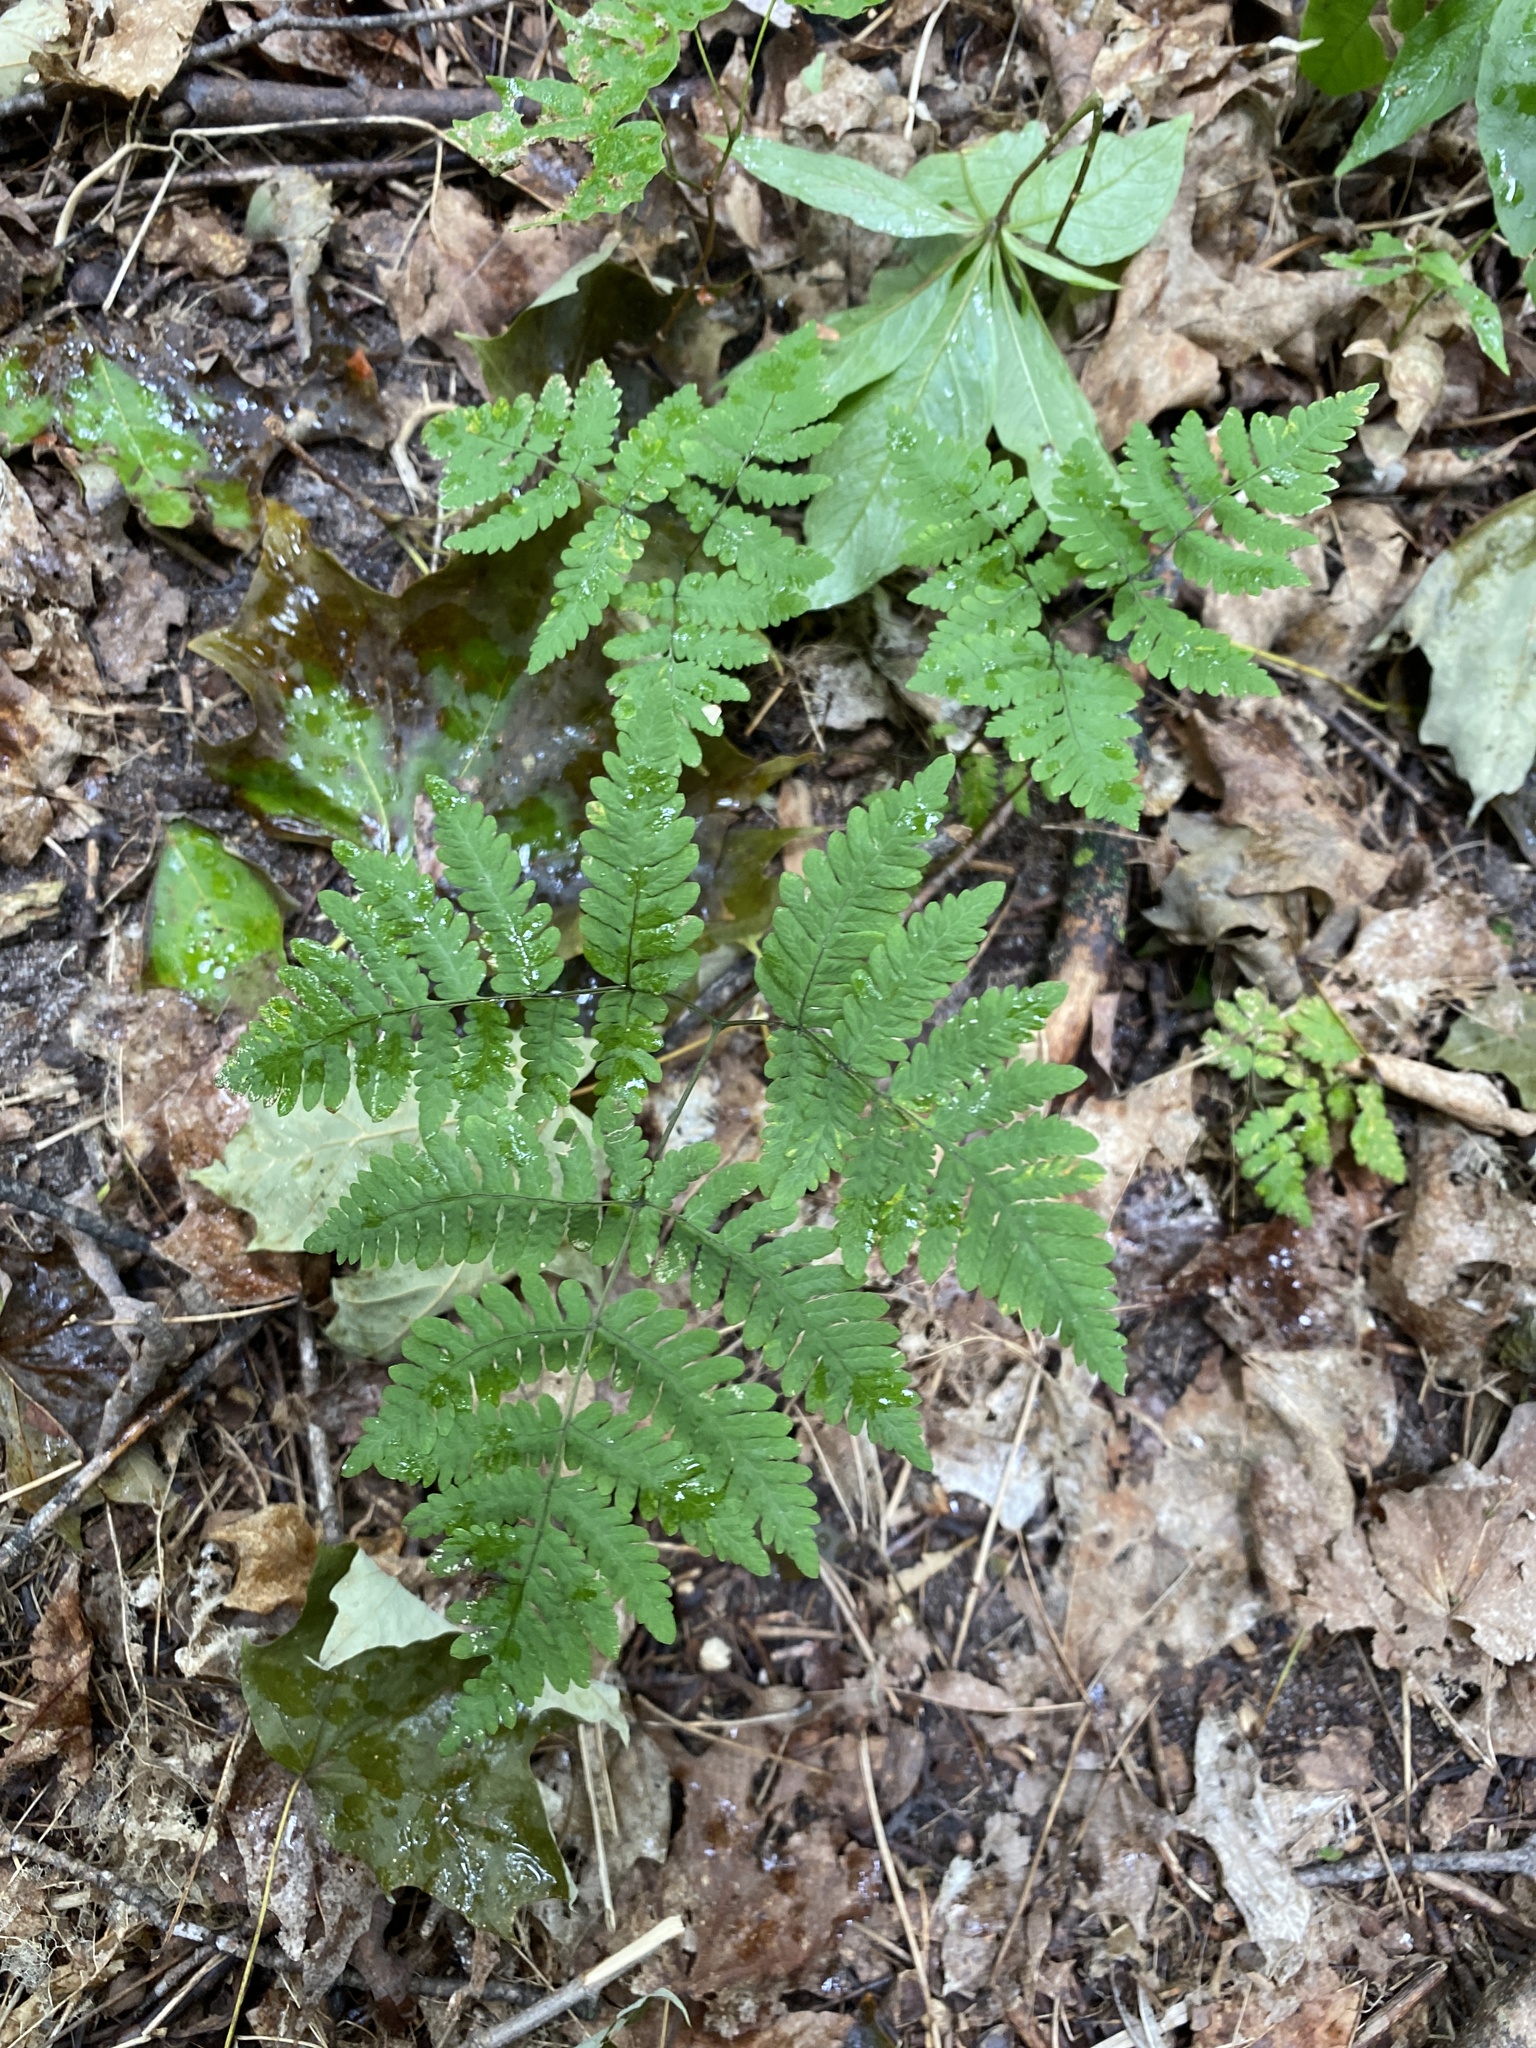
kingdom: Plantae
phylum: Tracheophyta
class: Polypodiopsida
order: Polypodiales
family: Cystopteridaceae
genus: Gymnocarpium
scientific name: Gymnocarpium dryopteris
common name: Oak fern
